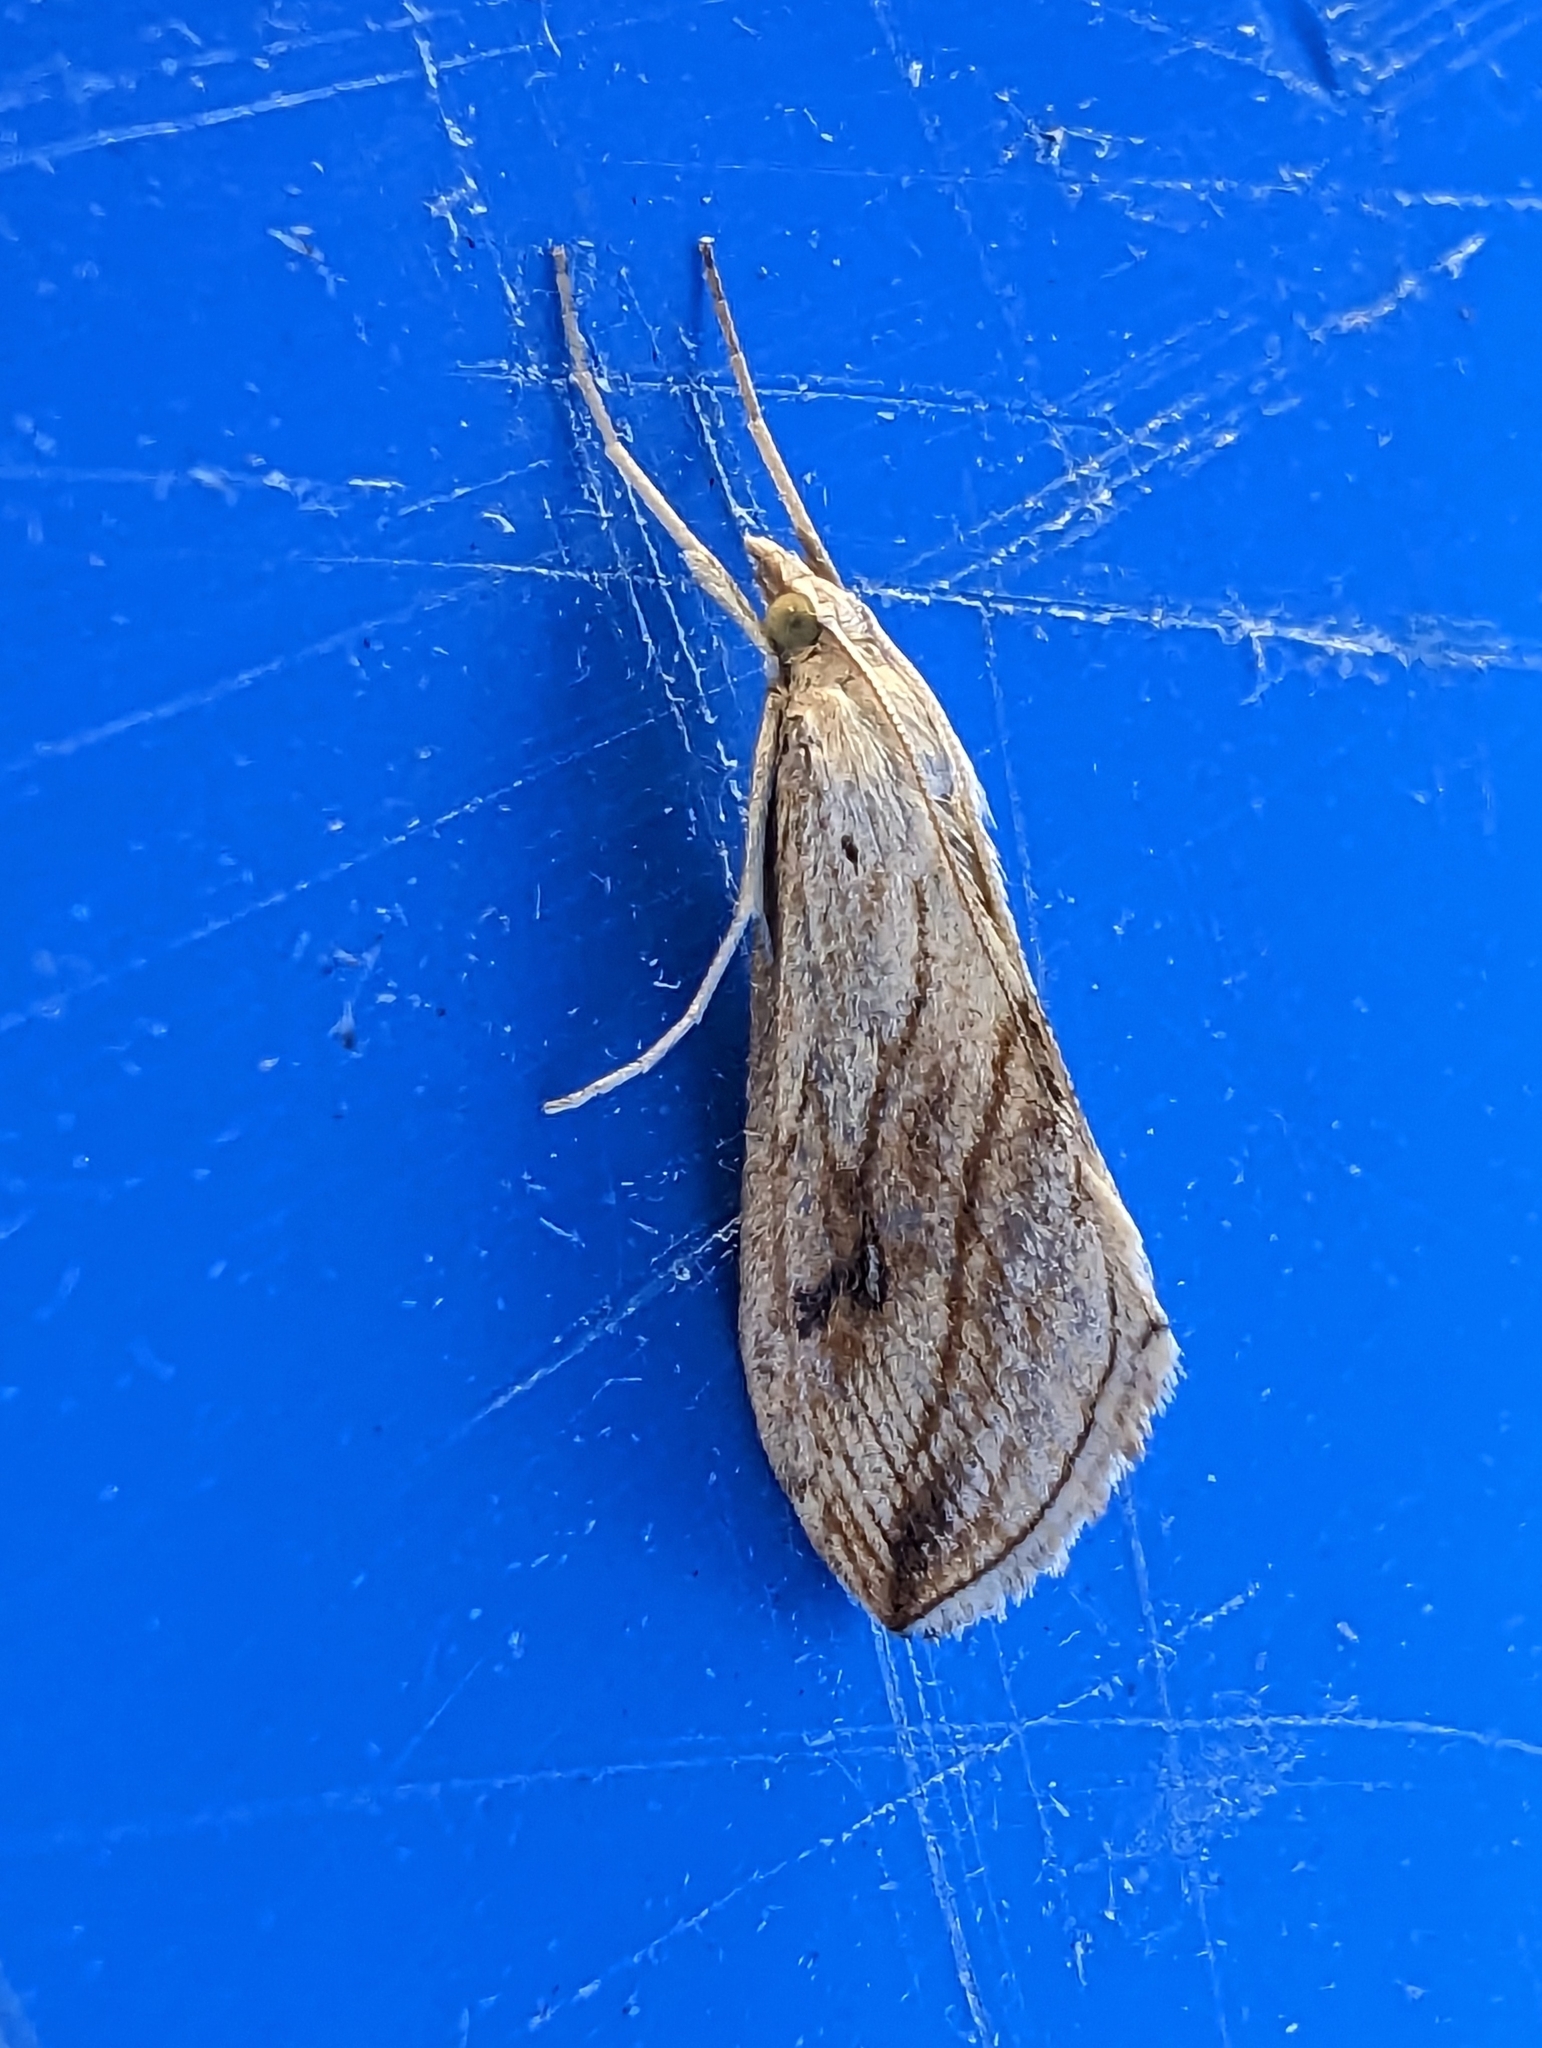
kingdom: Animalia
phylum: Arthropoda
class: Insecta
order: Lepidoptera
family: Crambidae
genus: Evergestis
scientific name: Evergestis forficalis
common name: Garden pebble
